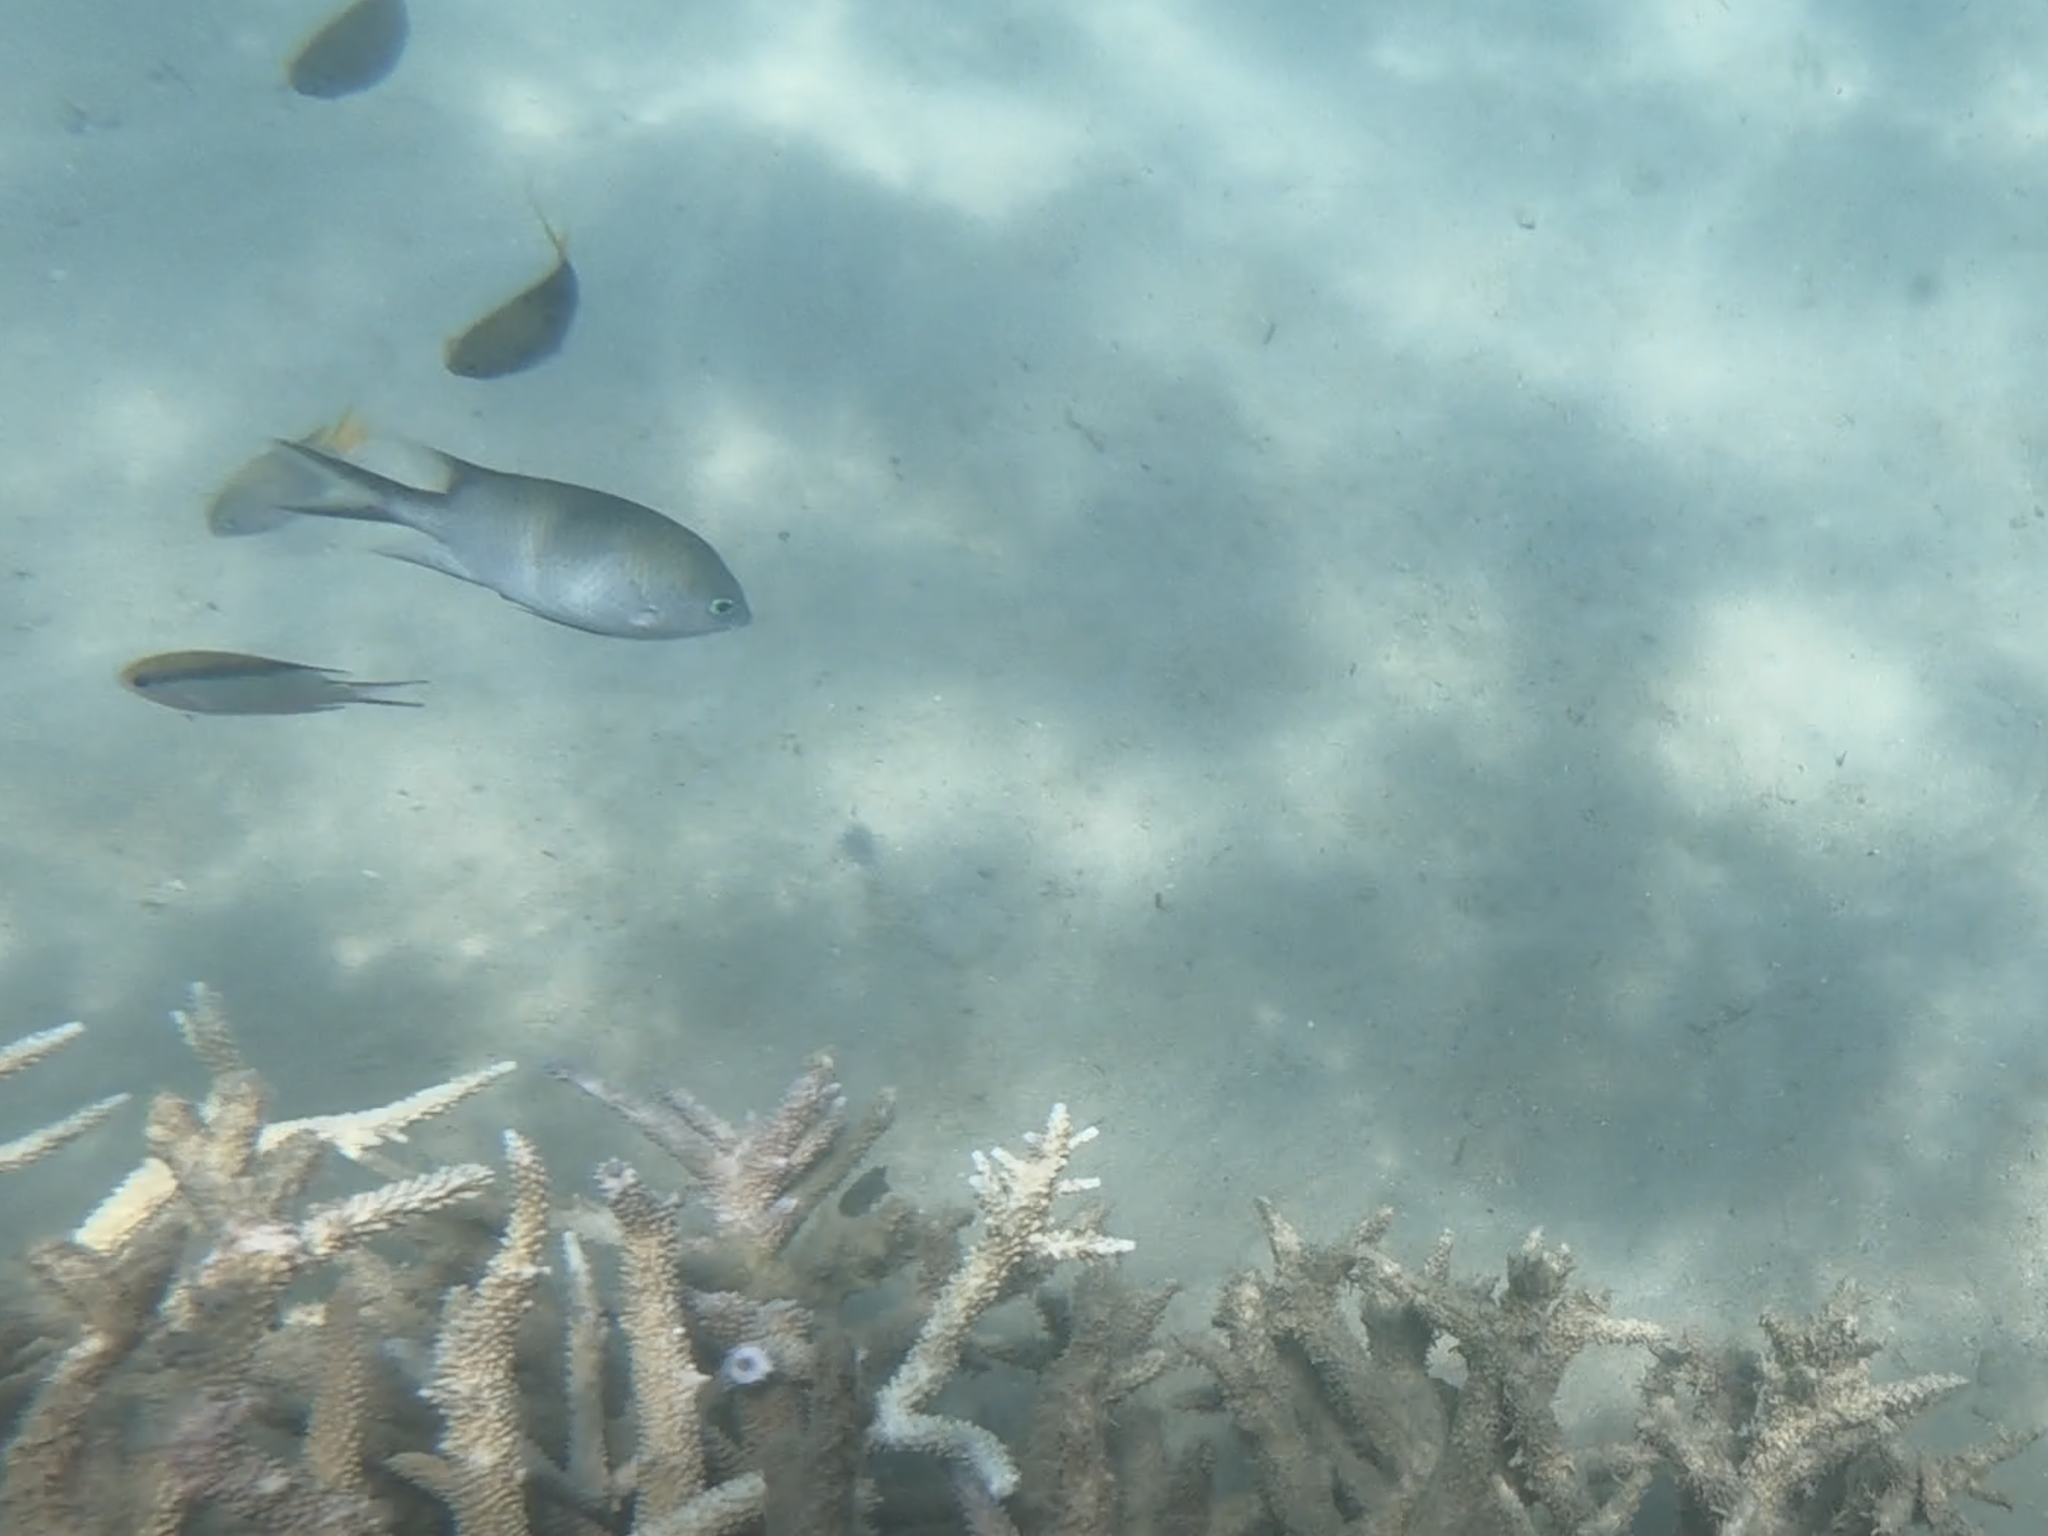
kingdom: Animalia
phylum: Chordata
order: Perciformes
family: Pomacentridae
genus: Acanthochromis
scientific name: Acanthochromis polyacanthus
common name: Spiny chromis
